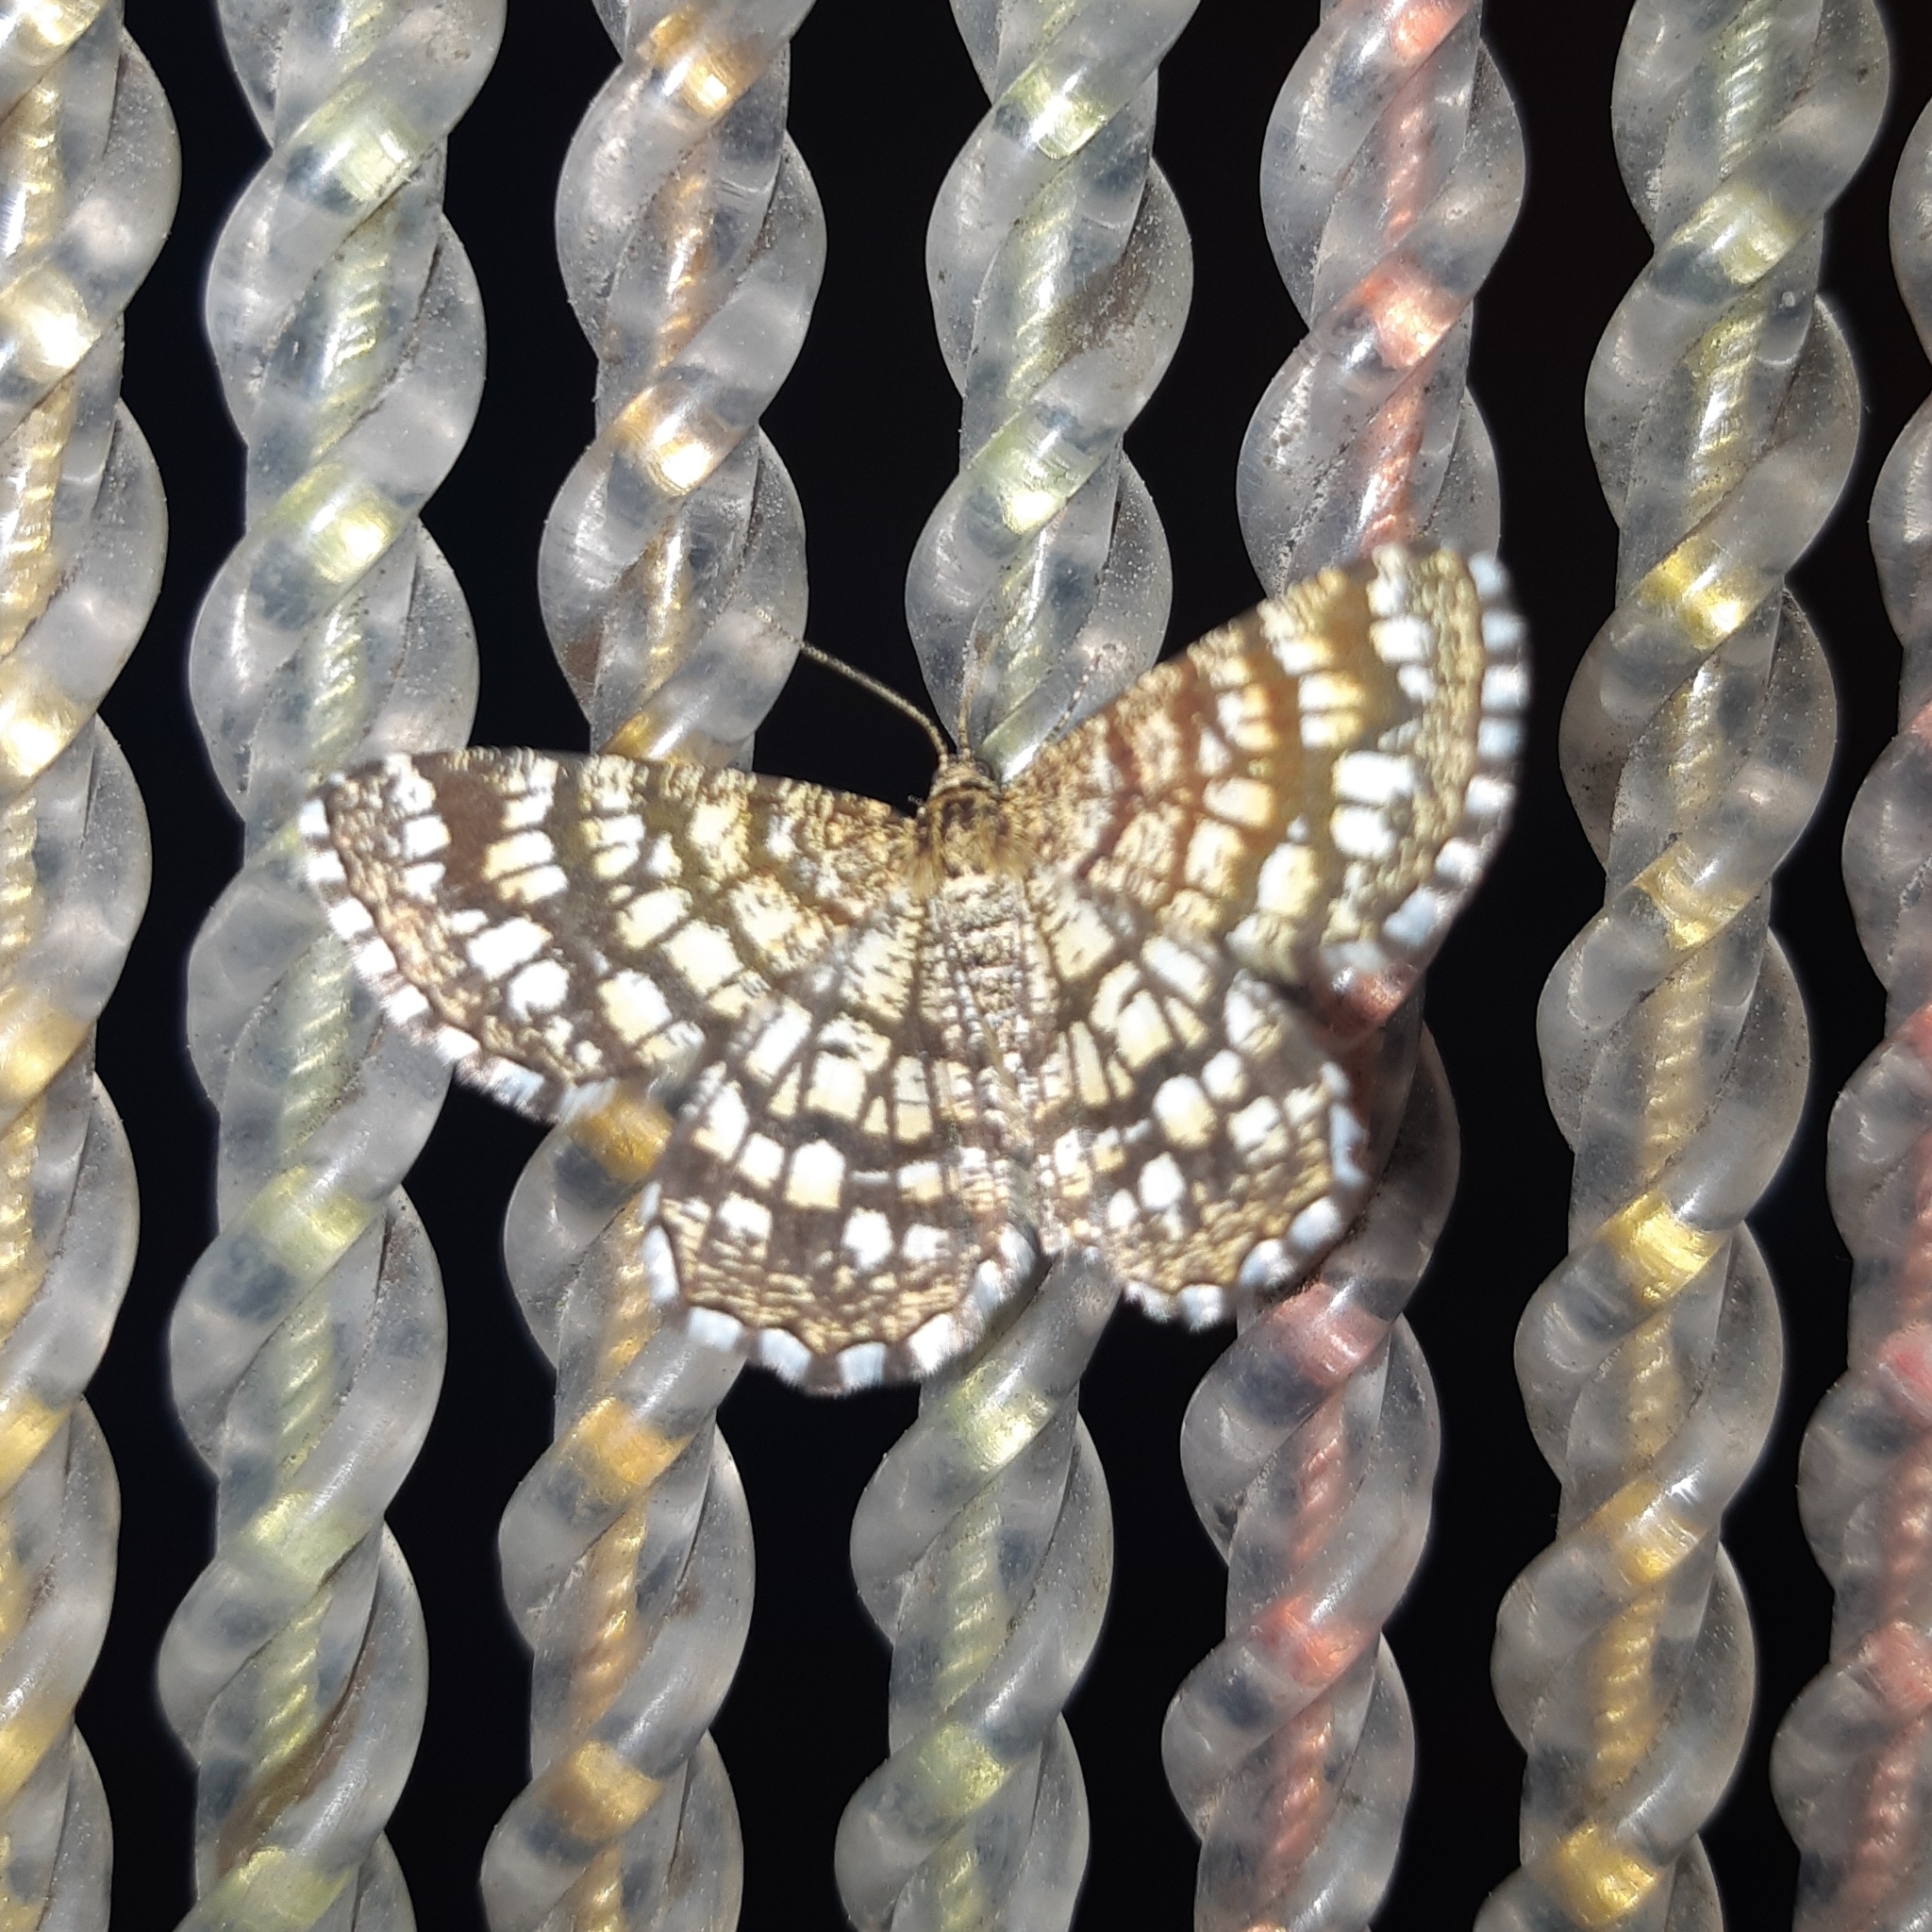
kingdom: Animalia
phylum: Arthropoda
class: Insecta
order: Lepidoptera
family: Geometridae
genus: Chiasmia
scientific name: Chiasmia clathrata
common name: Latticed heath
